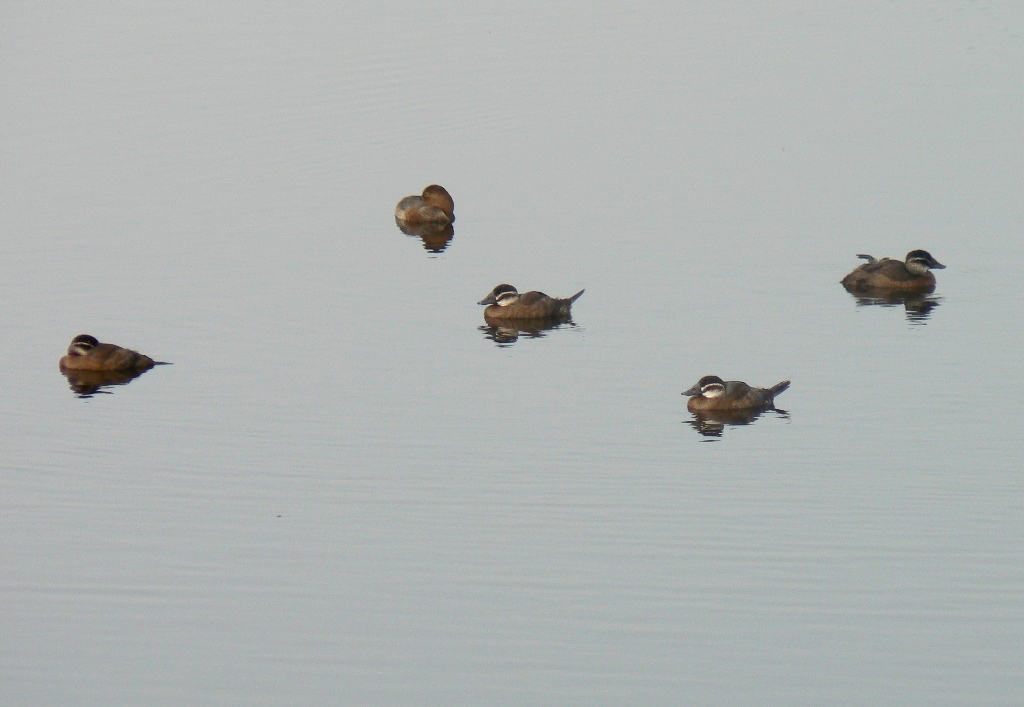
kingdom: Animalia
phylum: Chordata
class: Aves
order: Anseriformes
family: Anatidae
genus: Oxyura
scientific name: Oxyura leucocephala
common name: White-headed duck
